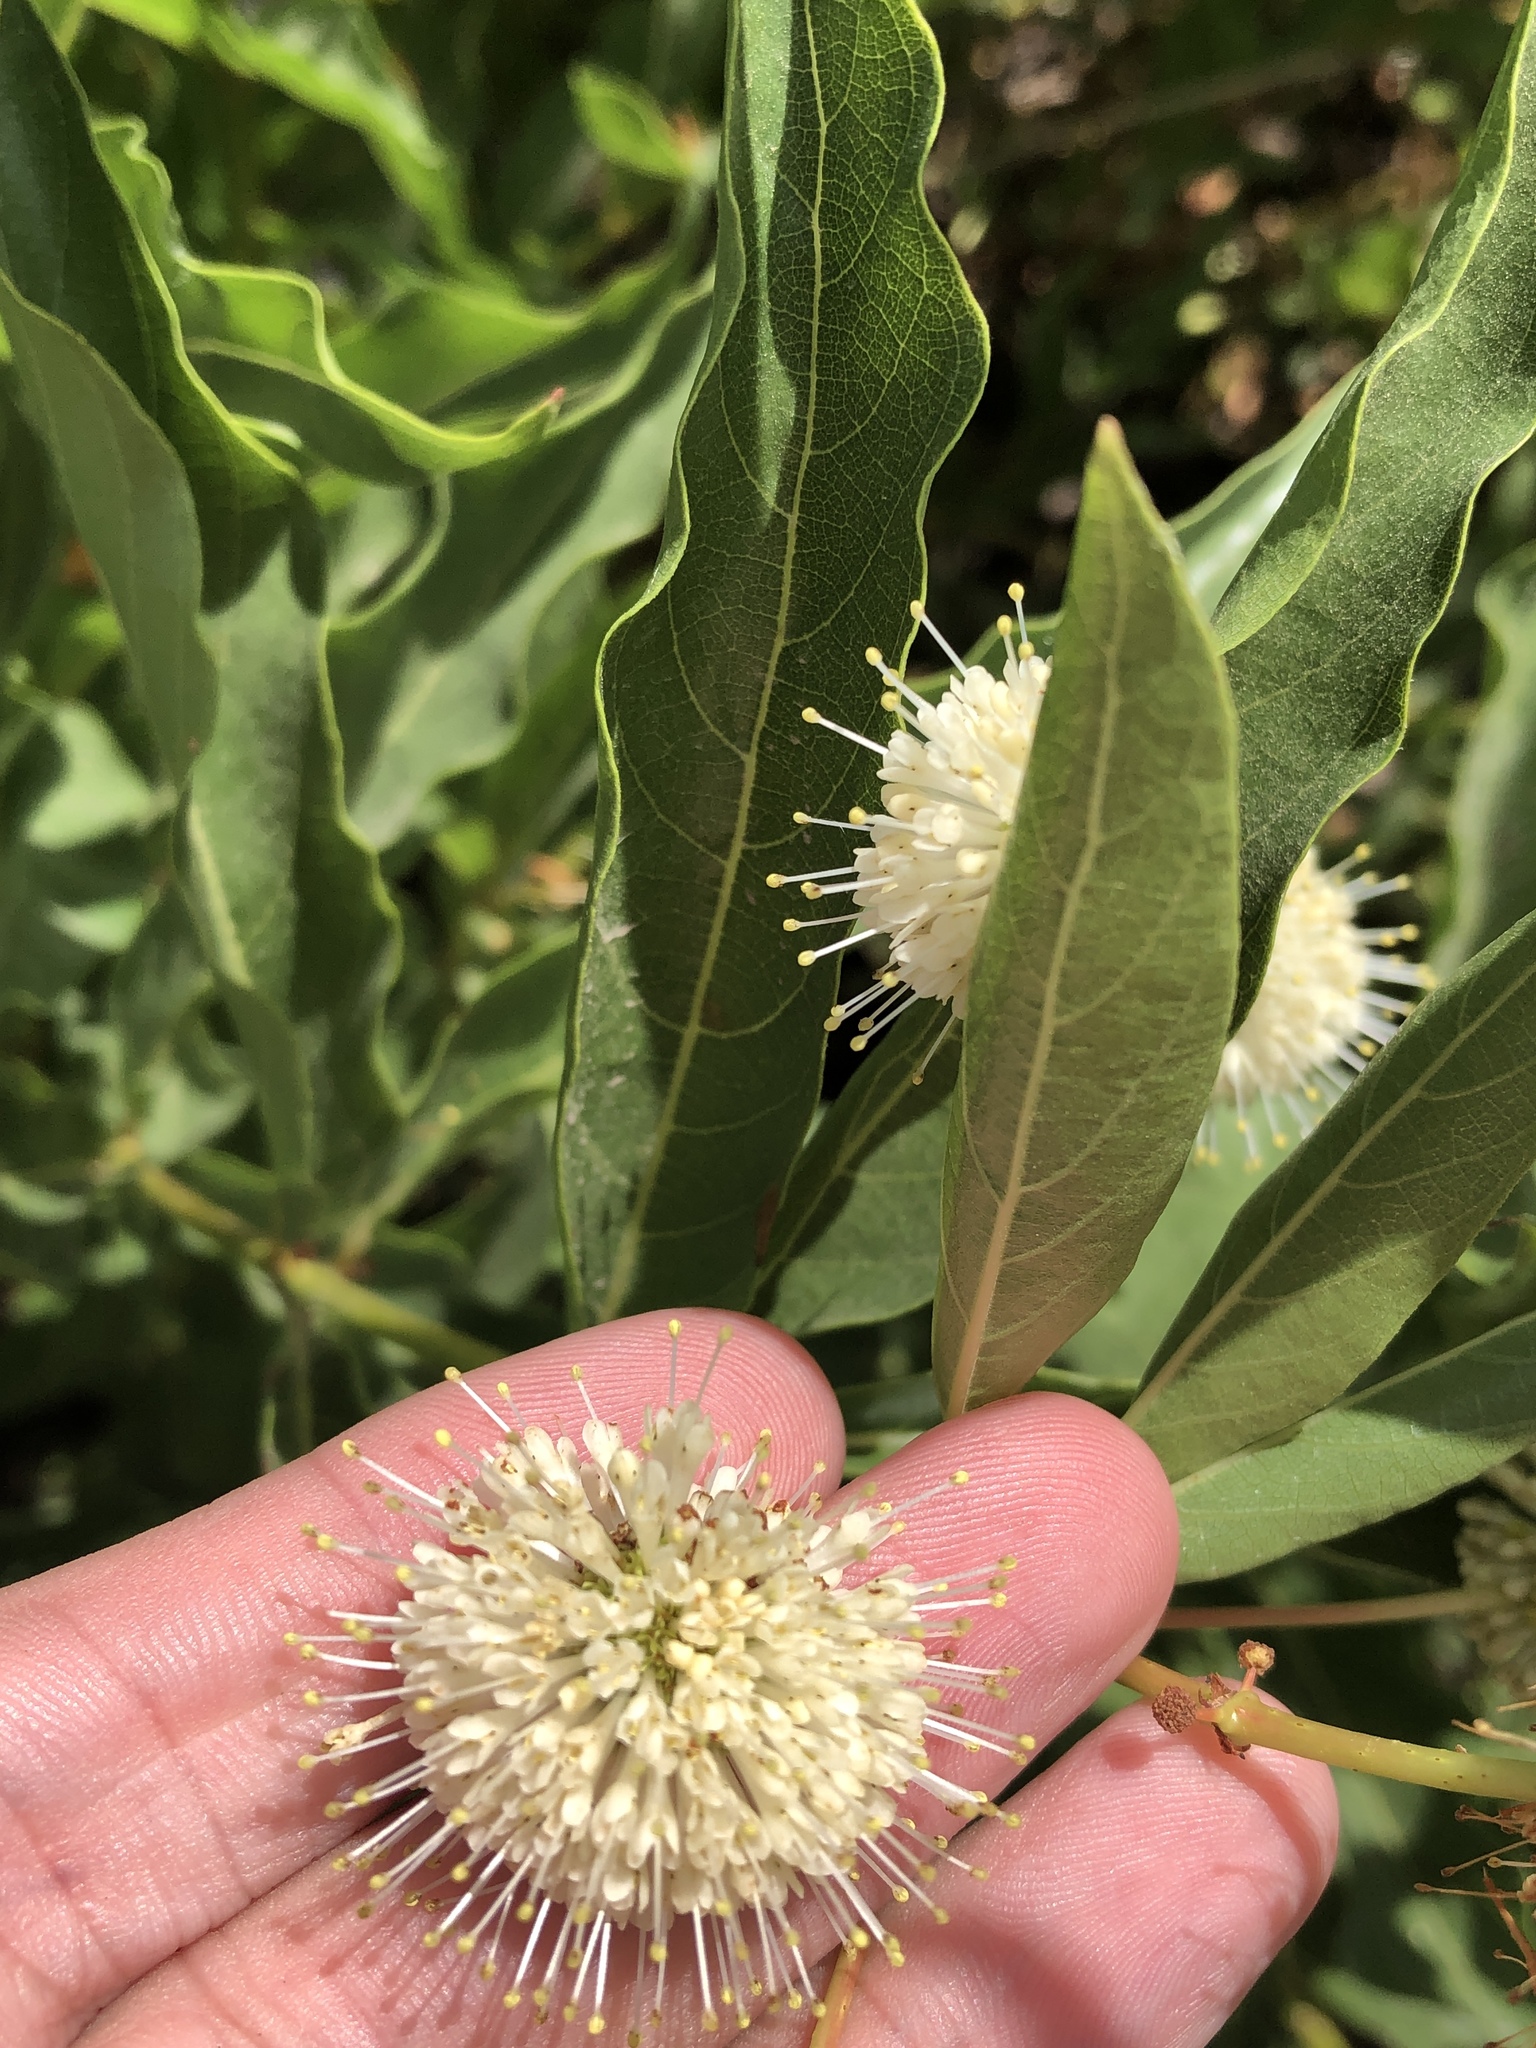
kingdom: Plantae
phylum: Tracheophyta
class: Magnoliopsida
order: Gentianales
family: Rubiaceae
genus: Cephalanthus
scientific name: Cephalanthus occidentalis
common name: Button-willow
